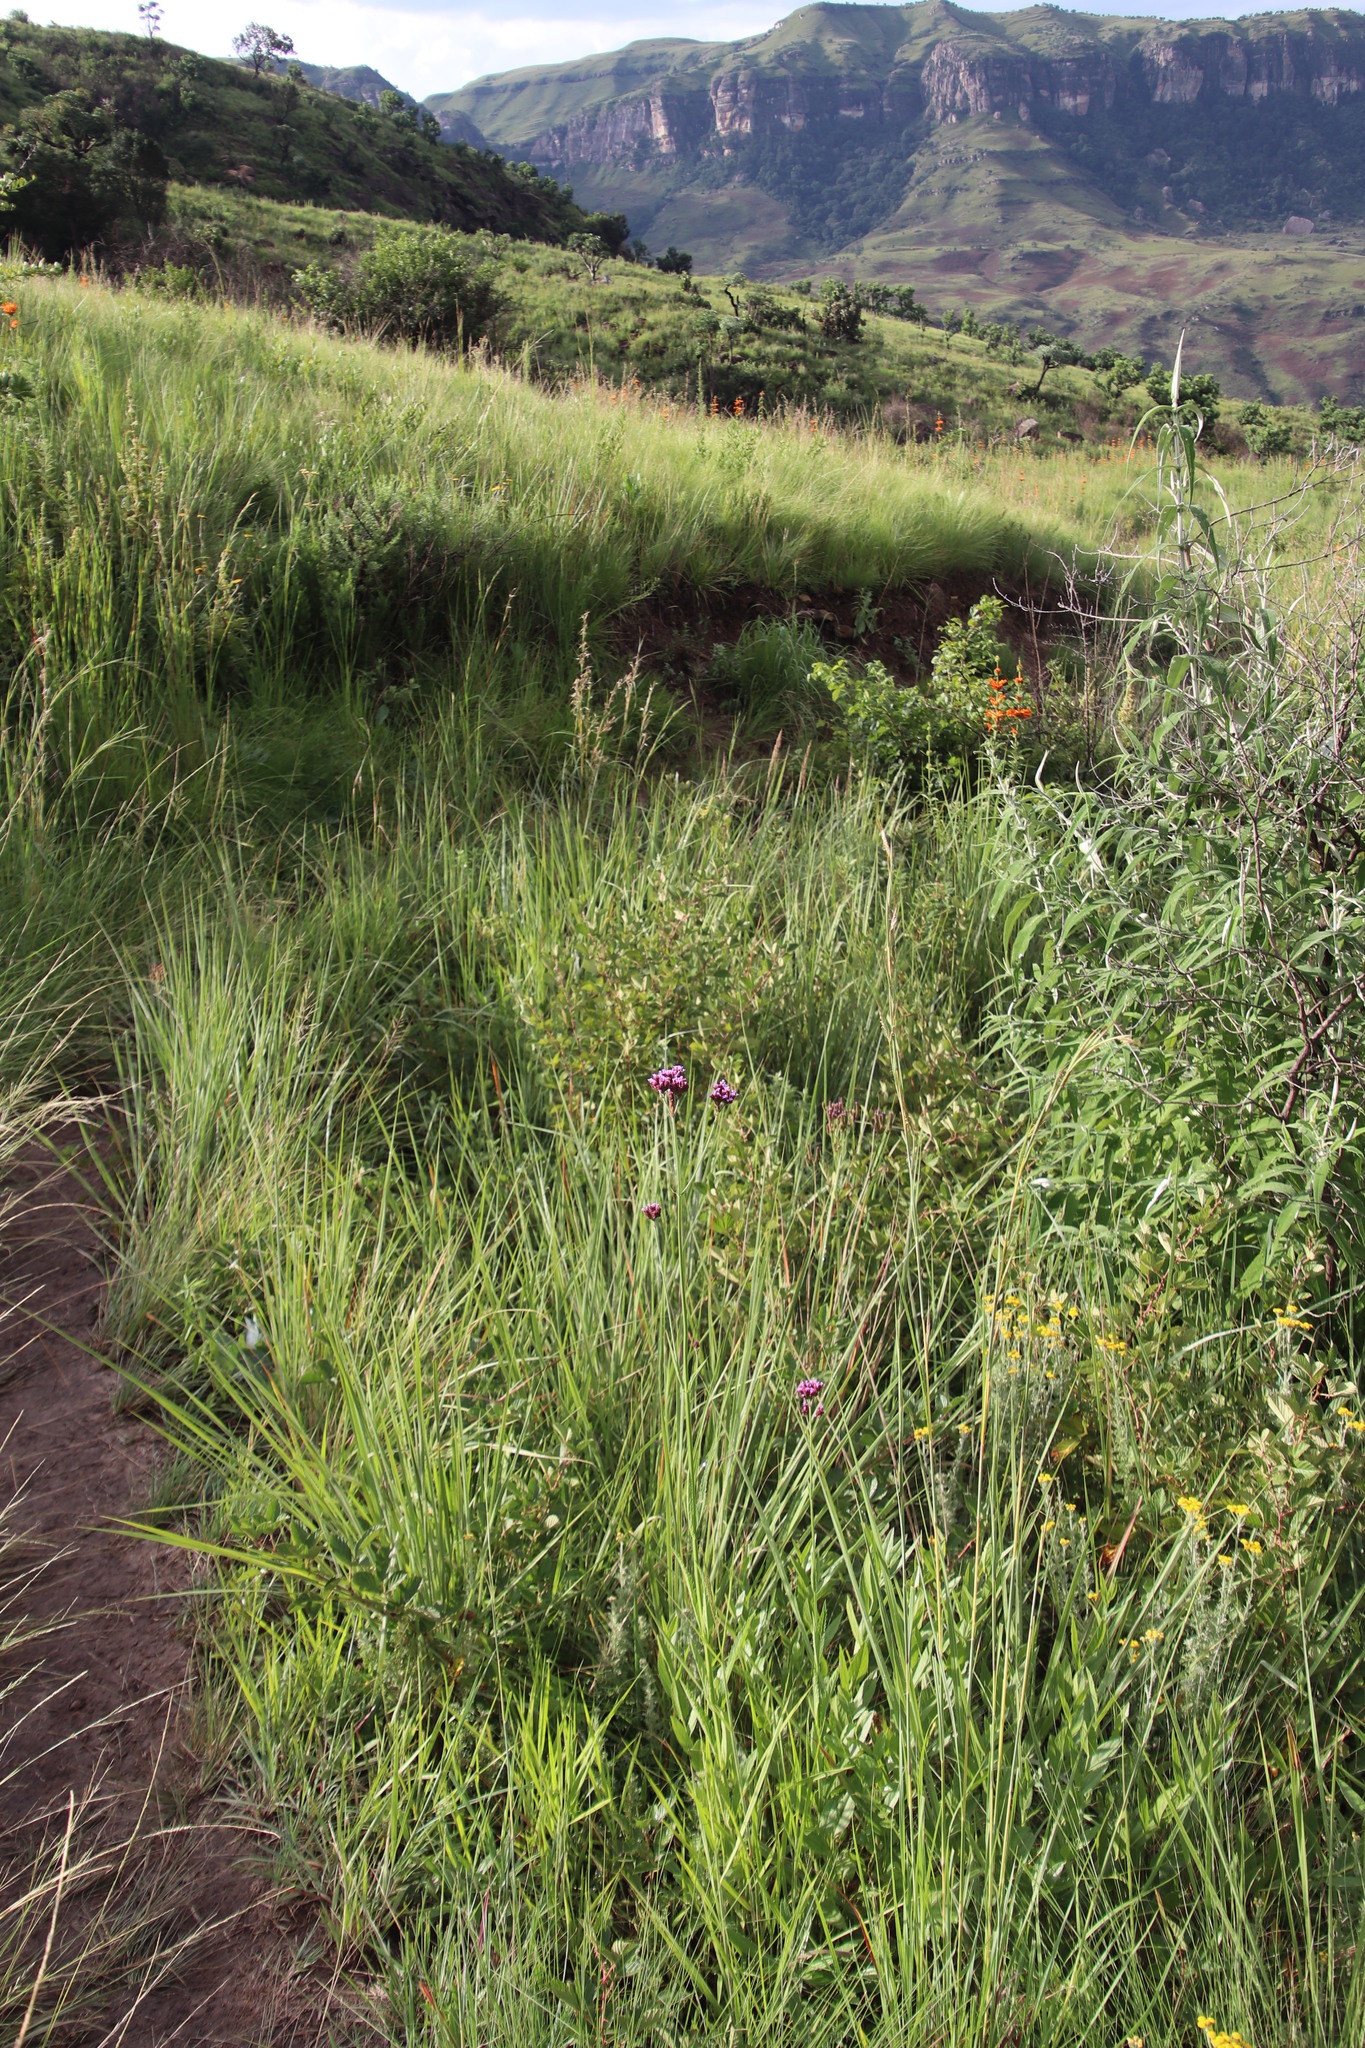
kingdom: Plantae
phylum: Tracheophyta
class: Magnoliopsida
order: Lamiales
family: Verbenaceae
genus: Verbena
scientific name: Verbena bonariensis
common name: Purpletop vervain
